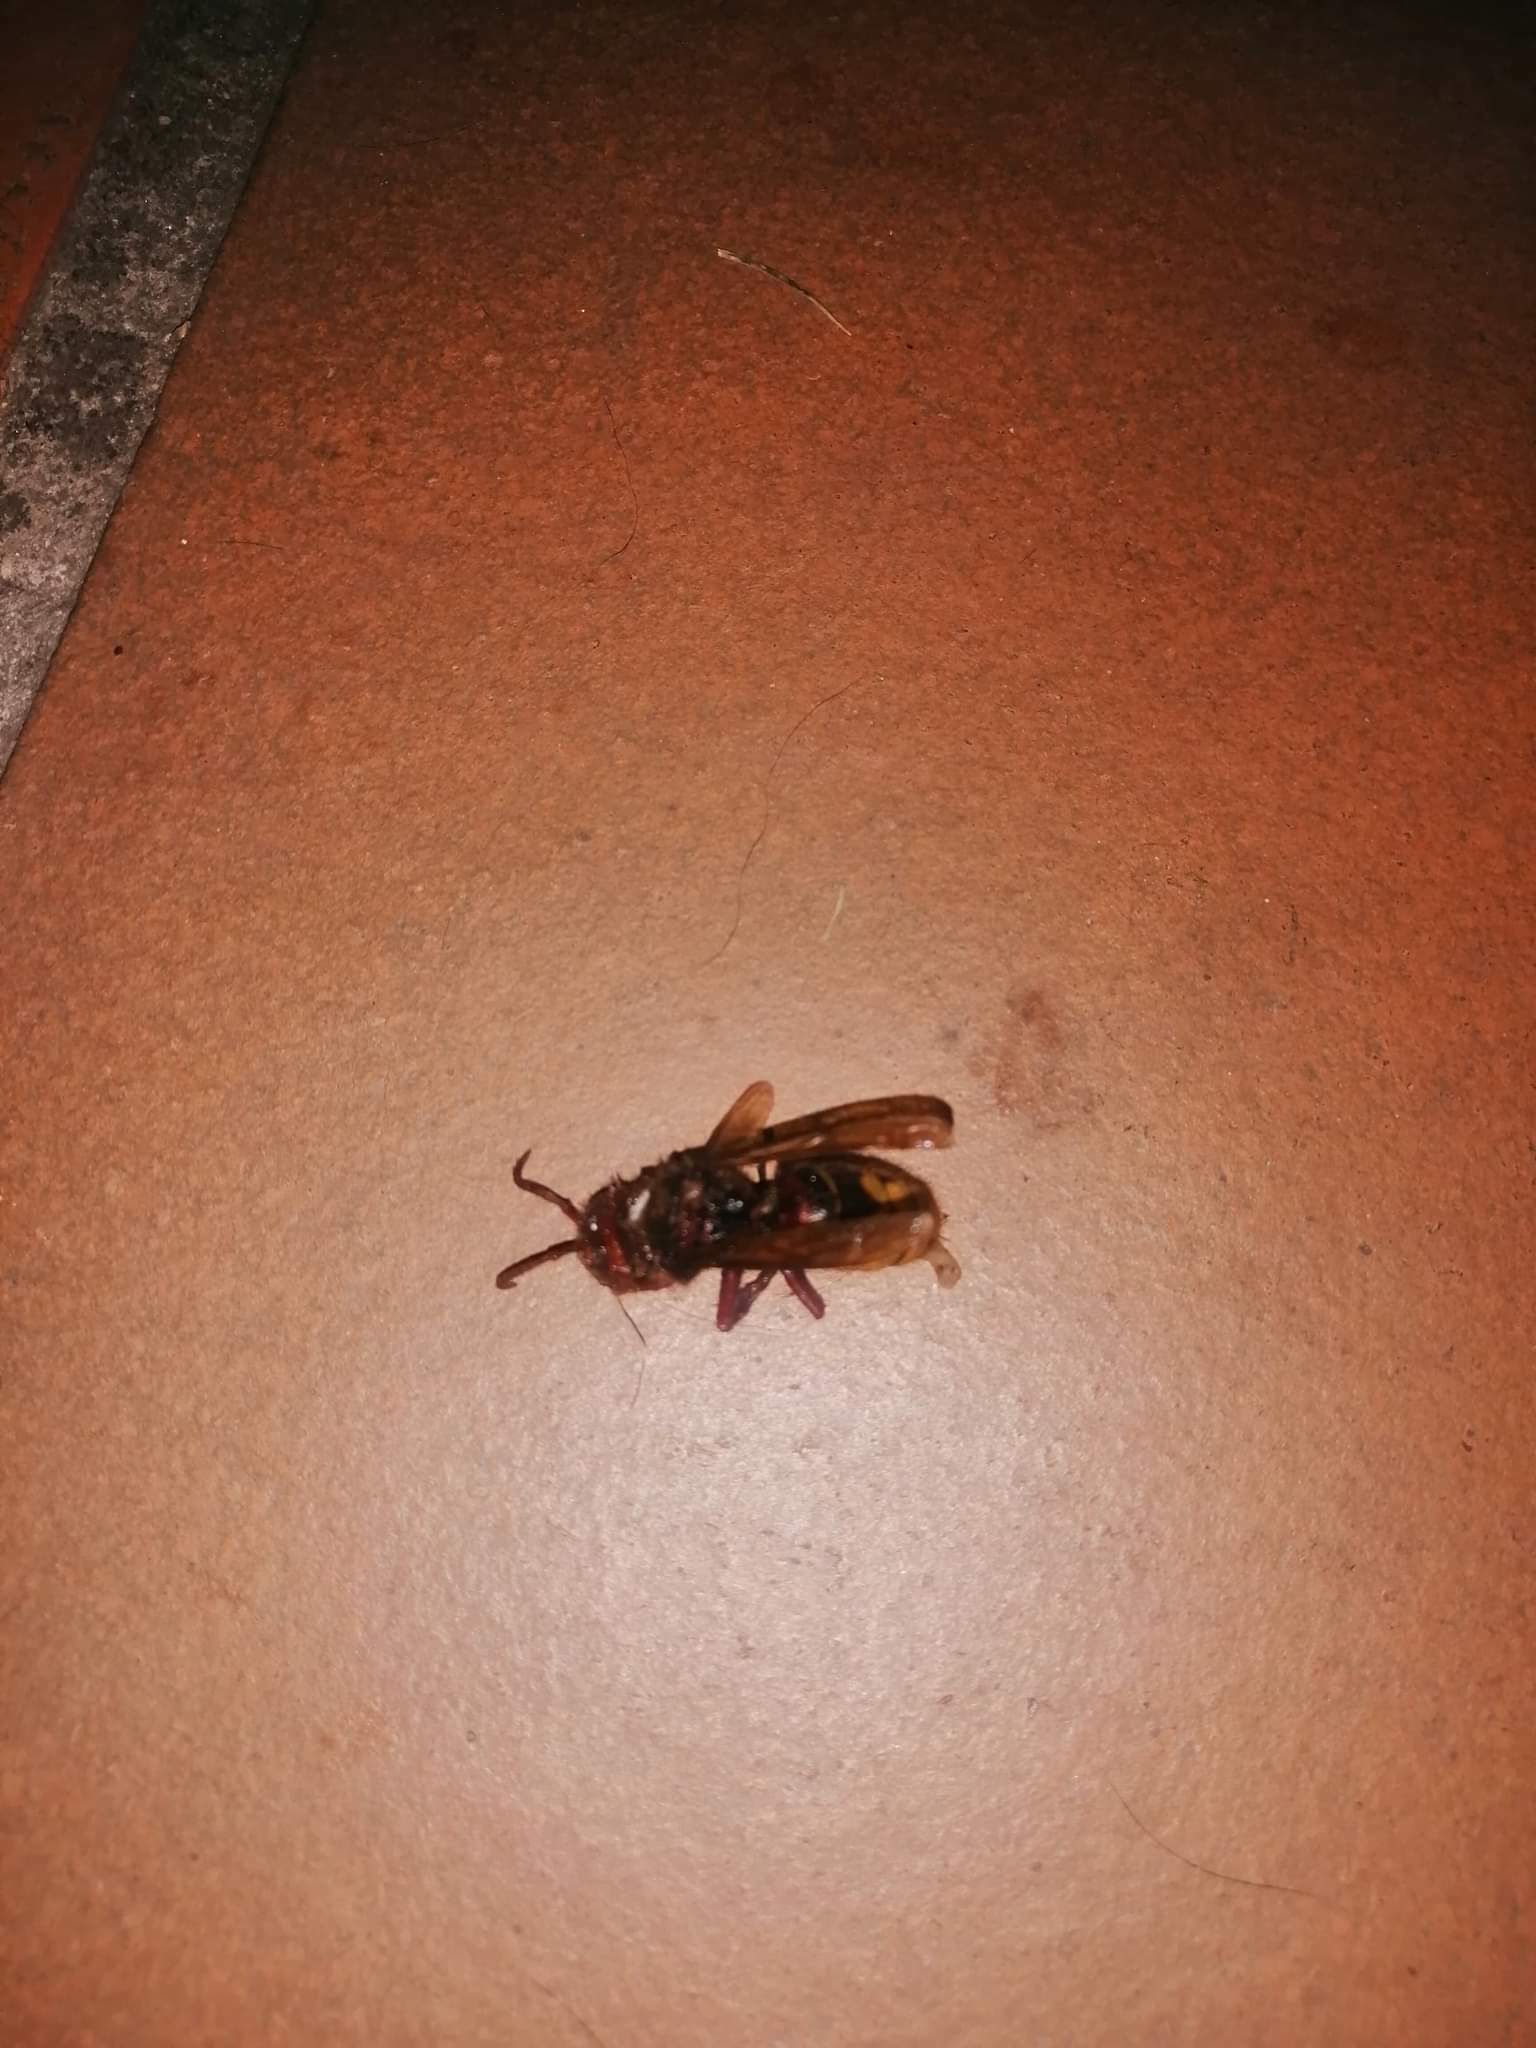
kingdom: Animalia
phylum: Arthropoda
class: Insecta
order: Hymenoptera
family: Vespidae
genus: Vespa
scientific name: Vespa crabro
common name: Hornet
